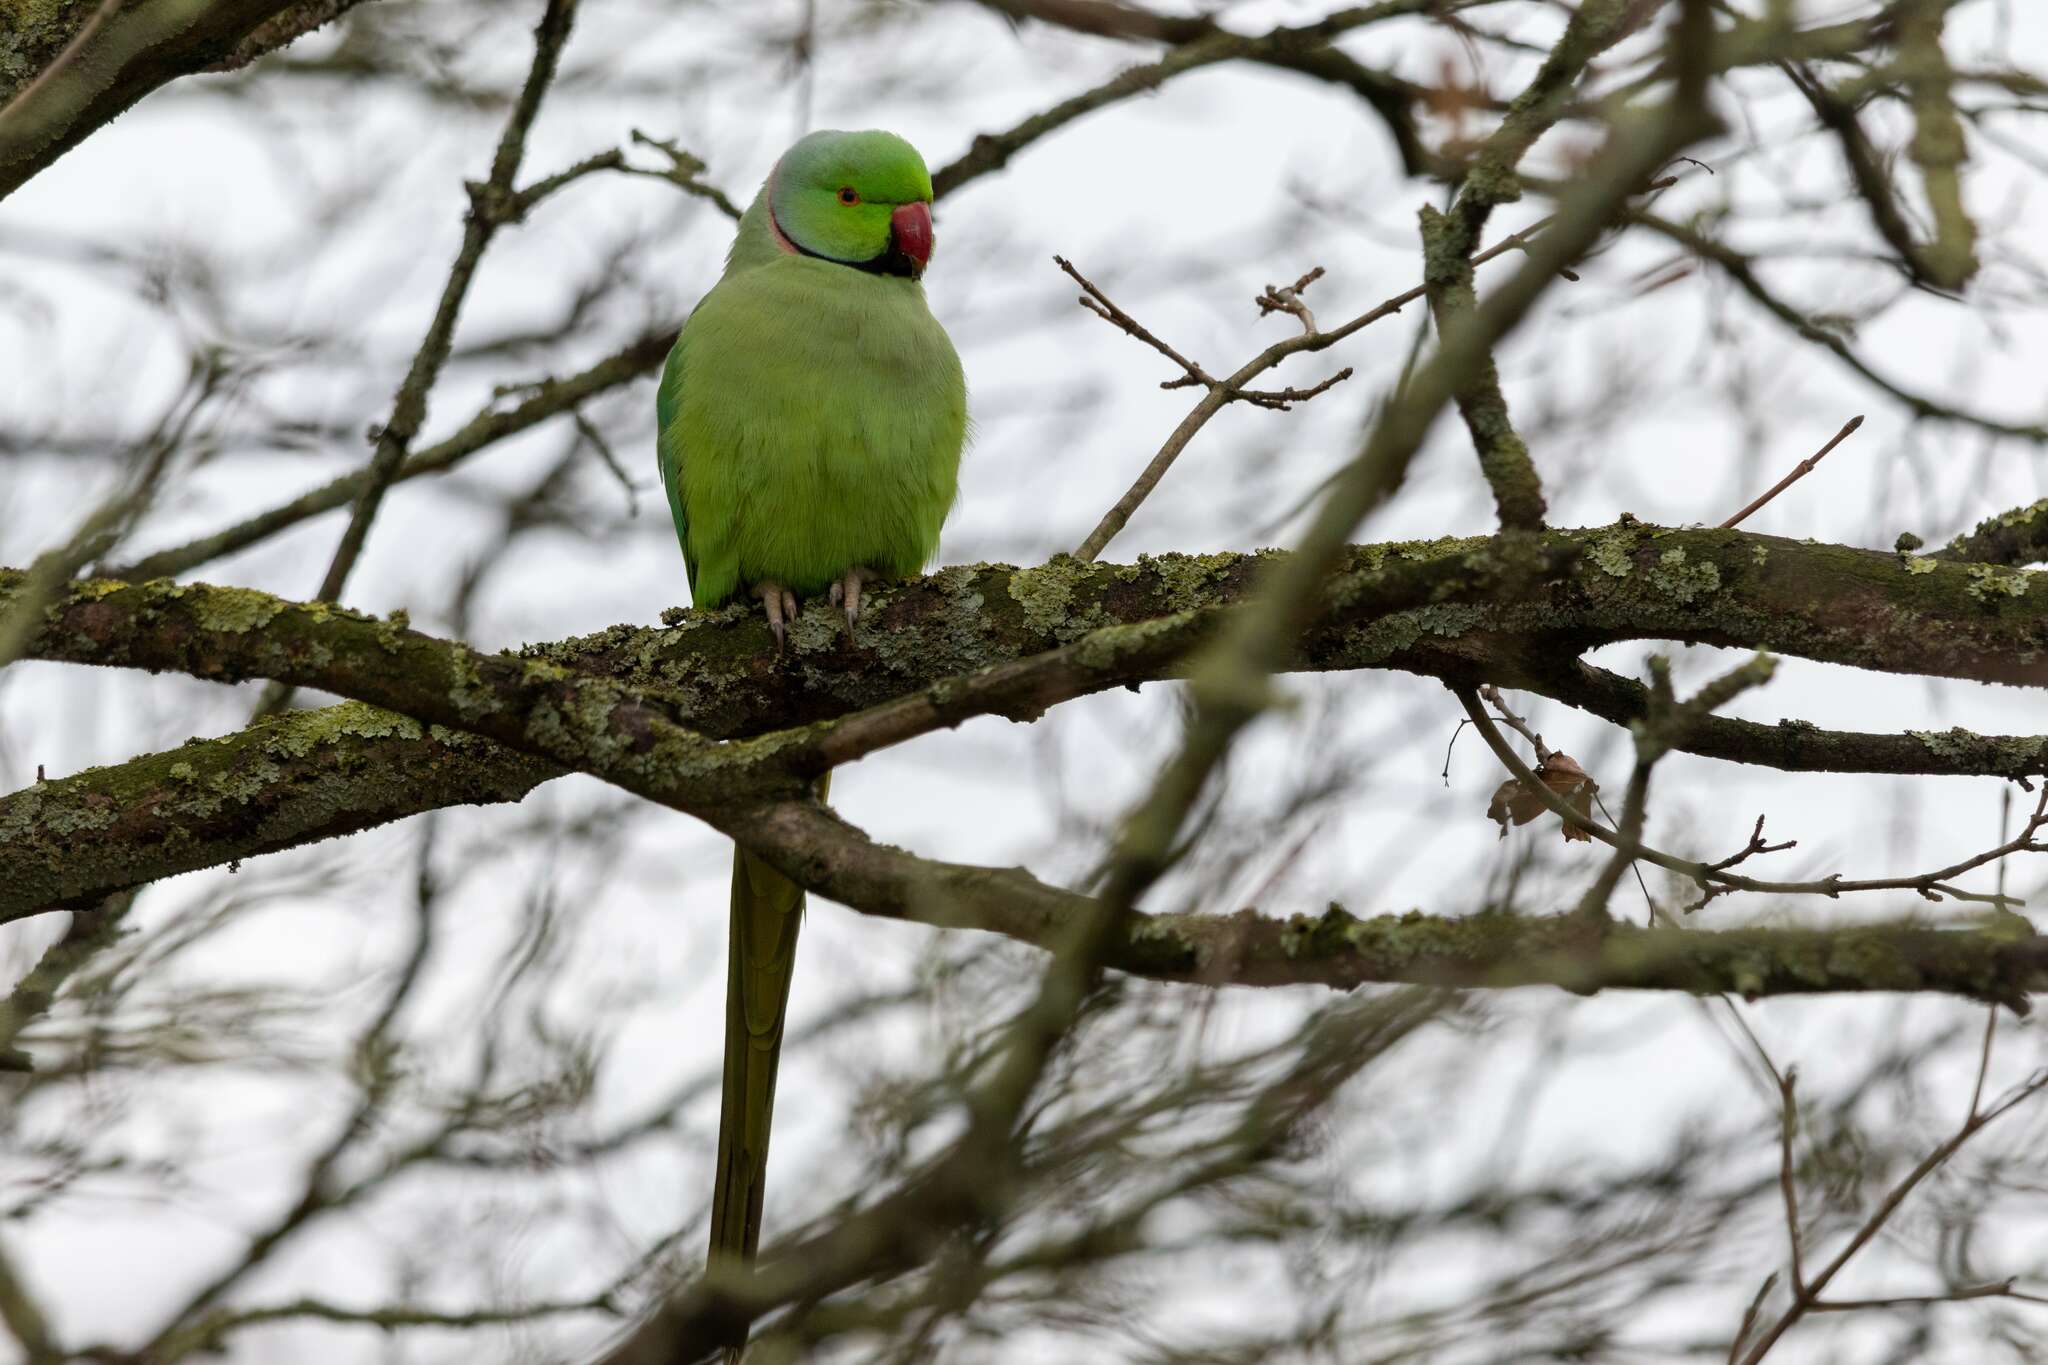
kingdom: Animalia
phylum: Chordata
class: Aves
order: Psittaciformes
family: Psittacidae
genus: Psittacula
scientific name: Psittacula krameri
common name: Rose-ringed parakeet
